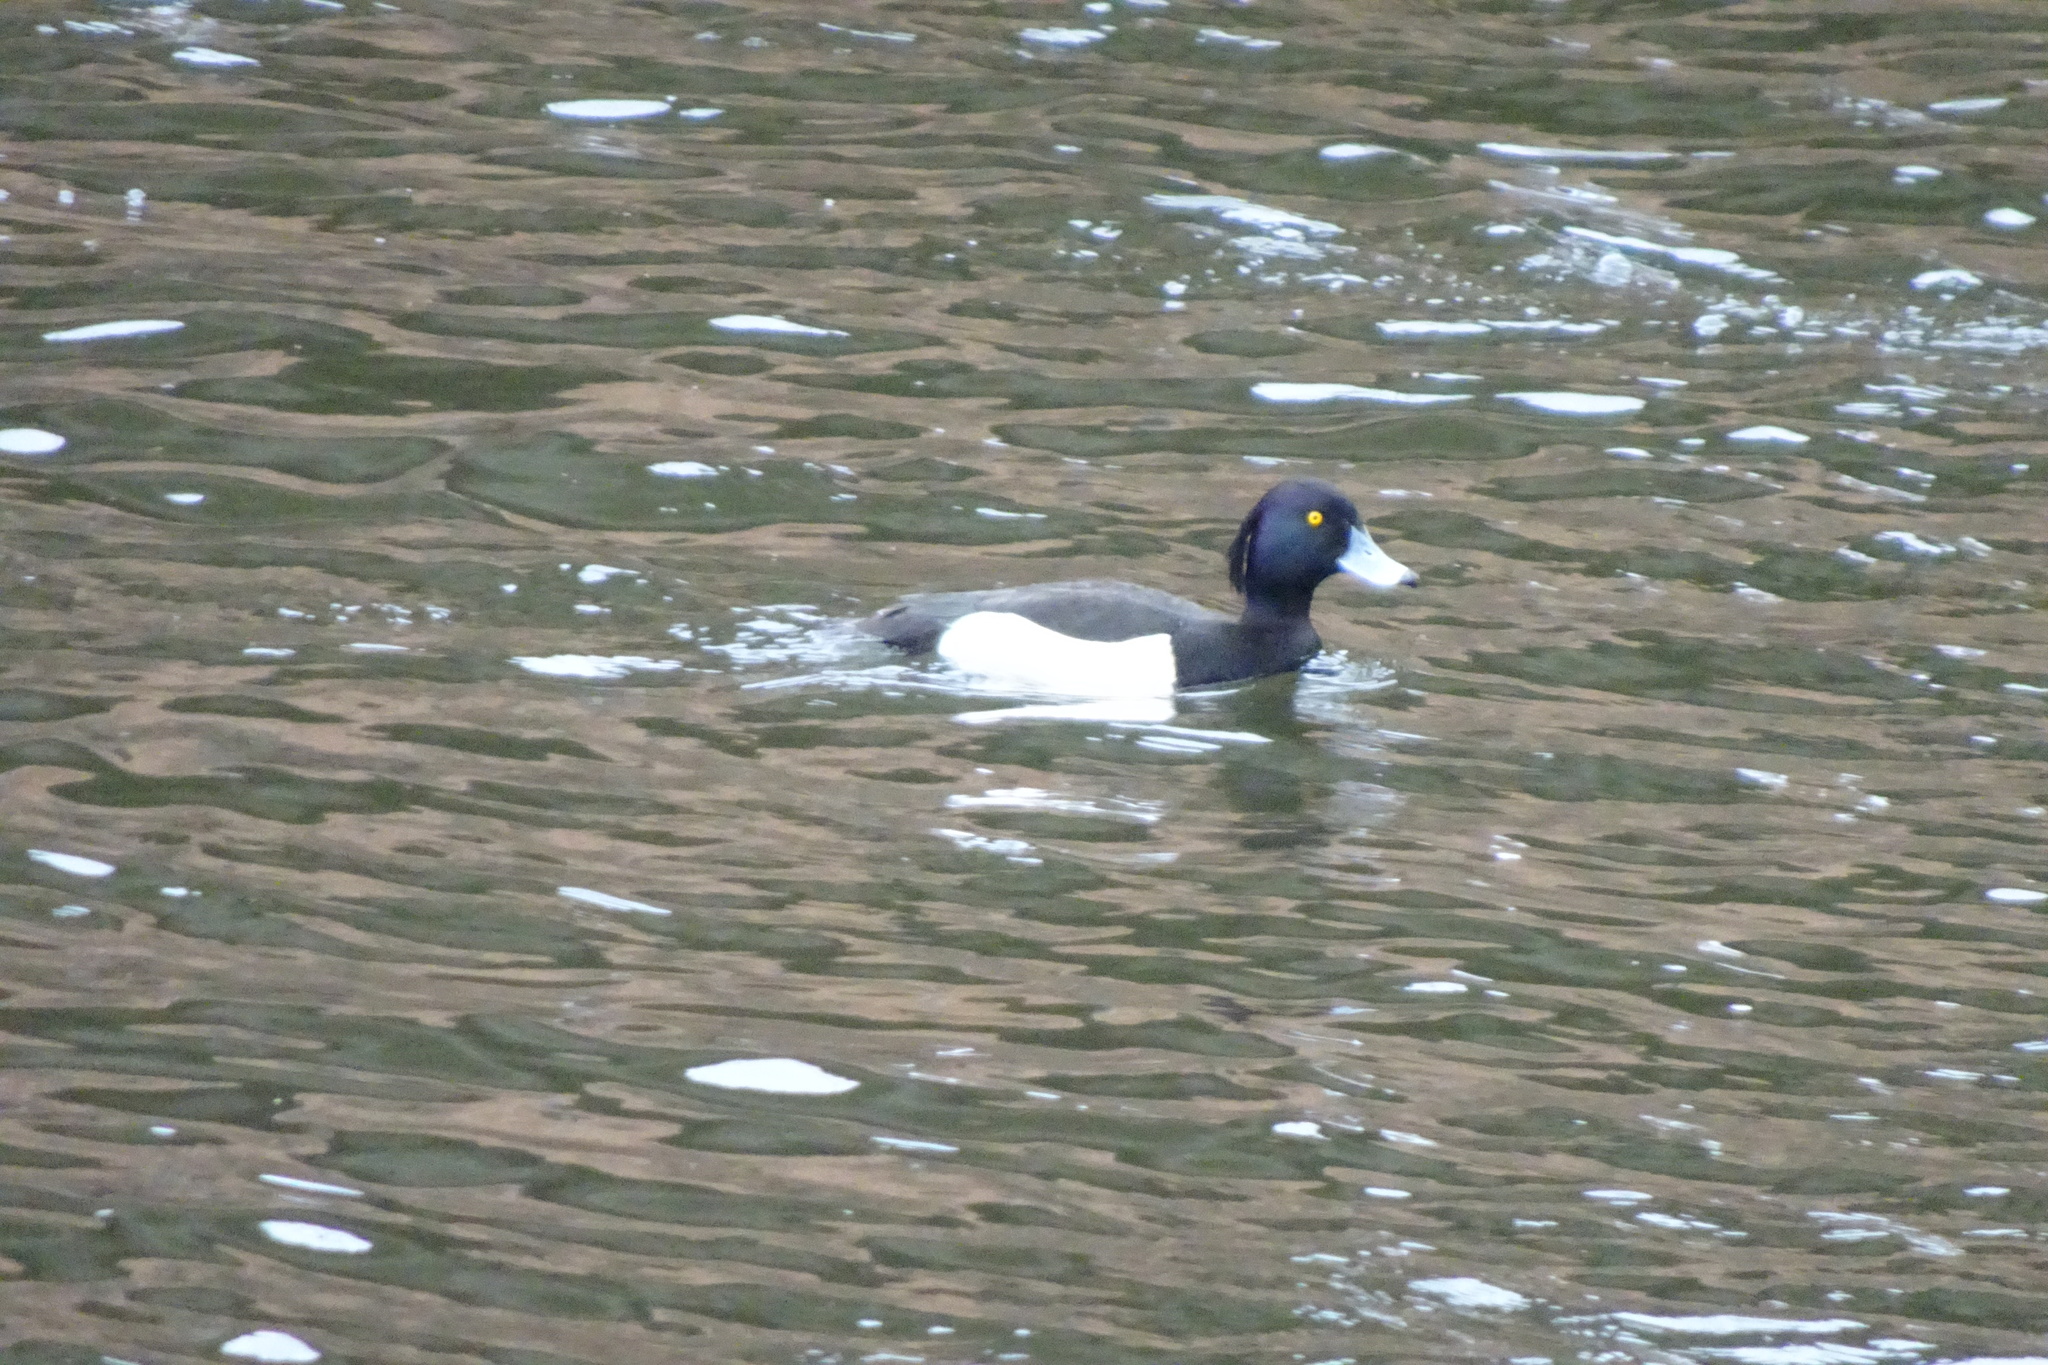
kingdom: Animalia
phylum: Chordata
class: Aves
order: Anseriformes
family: Anatidae
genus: Aythya
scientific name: Aythya fuligula
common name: Tufted duck
